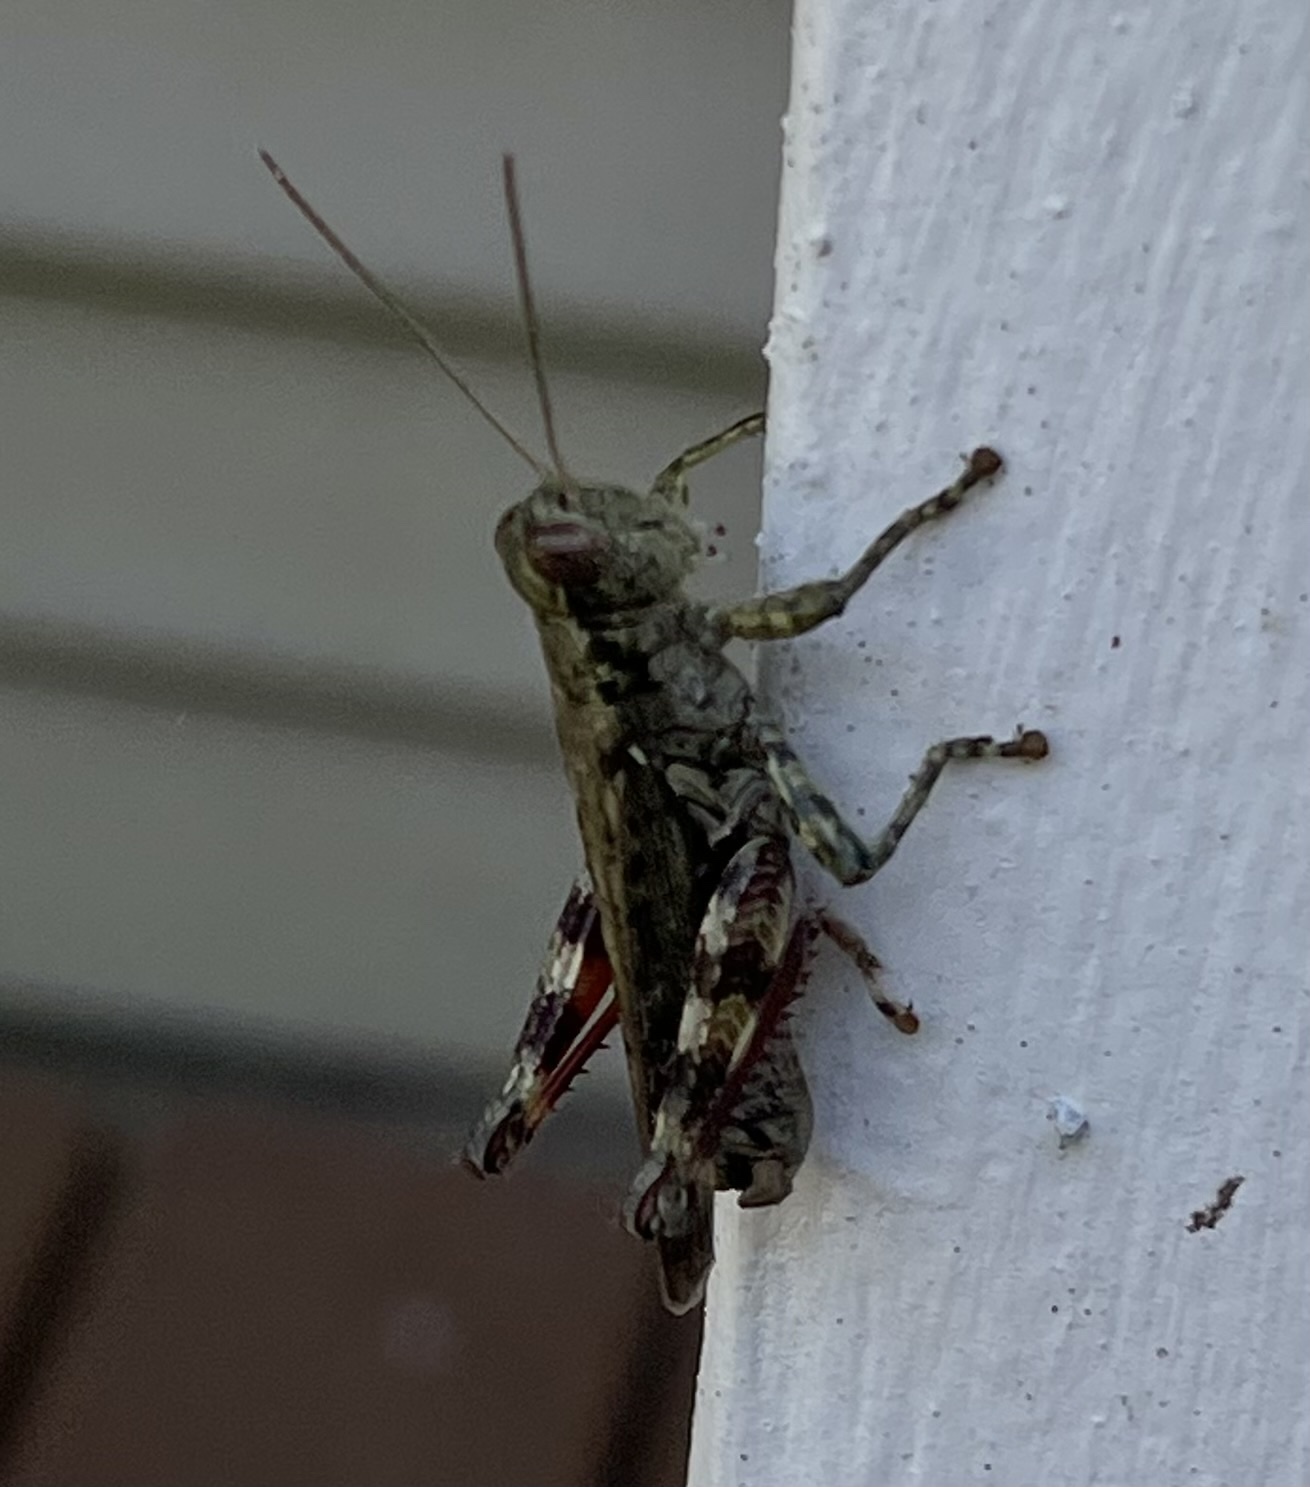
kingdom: Animalia
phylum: Arthropoda
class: Insecta
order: Orthoptera
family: Acrididae
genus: Melanoplus
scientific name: Melanoplus punctulatus
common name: Pine-tree spur-throat grasshopper
